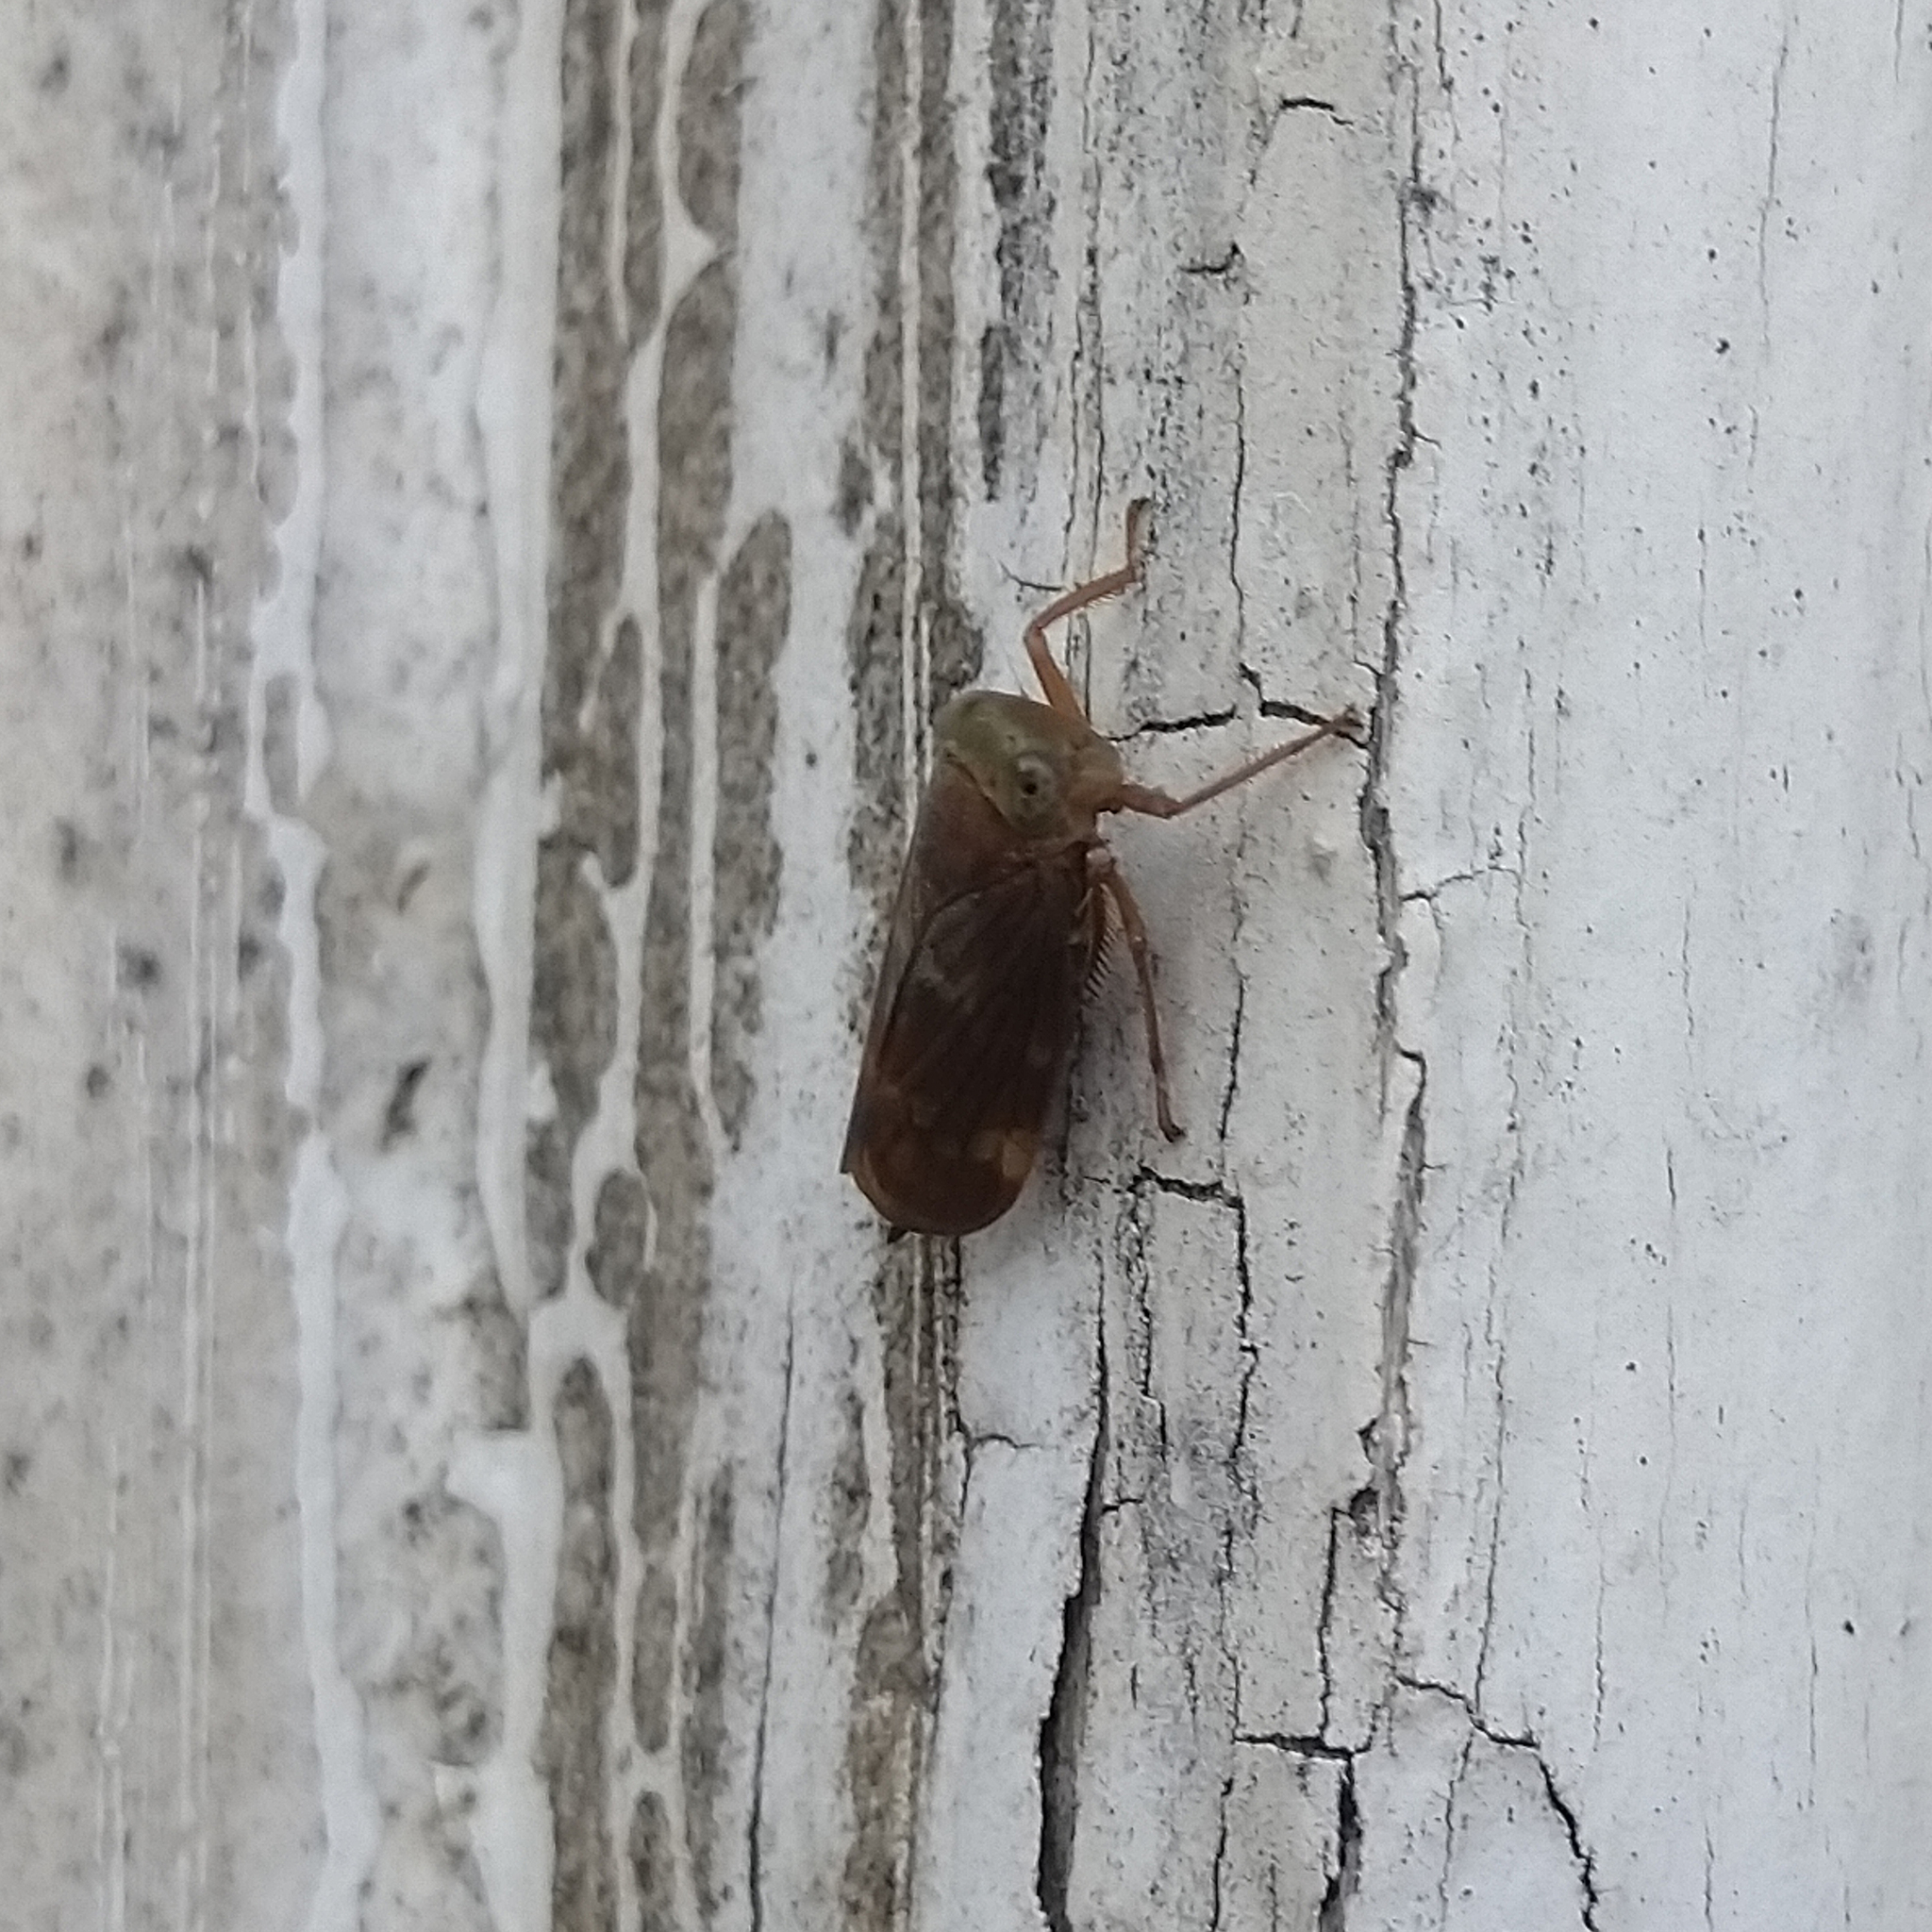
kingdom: Animalia
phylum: Arthropoda
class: Insecta
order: Hemiptera
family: Cicadellidae
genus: Jikradia
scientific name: Jikradia olitoria
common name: Coppery leafhopper
